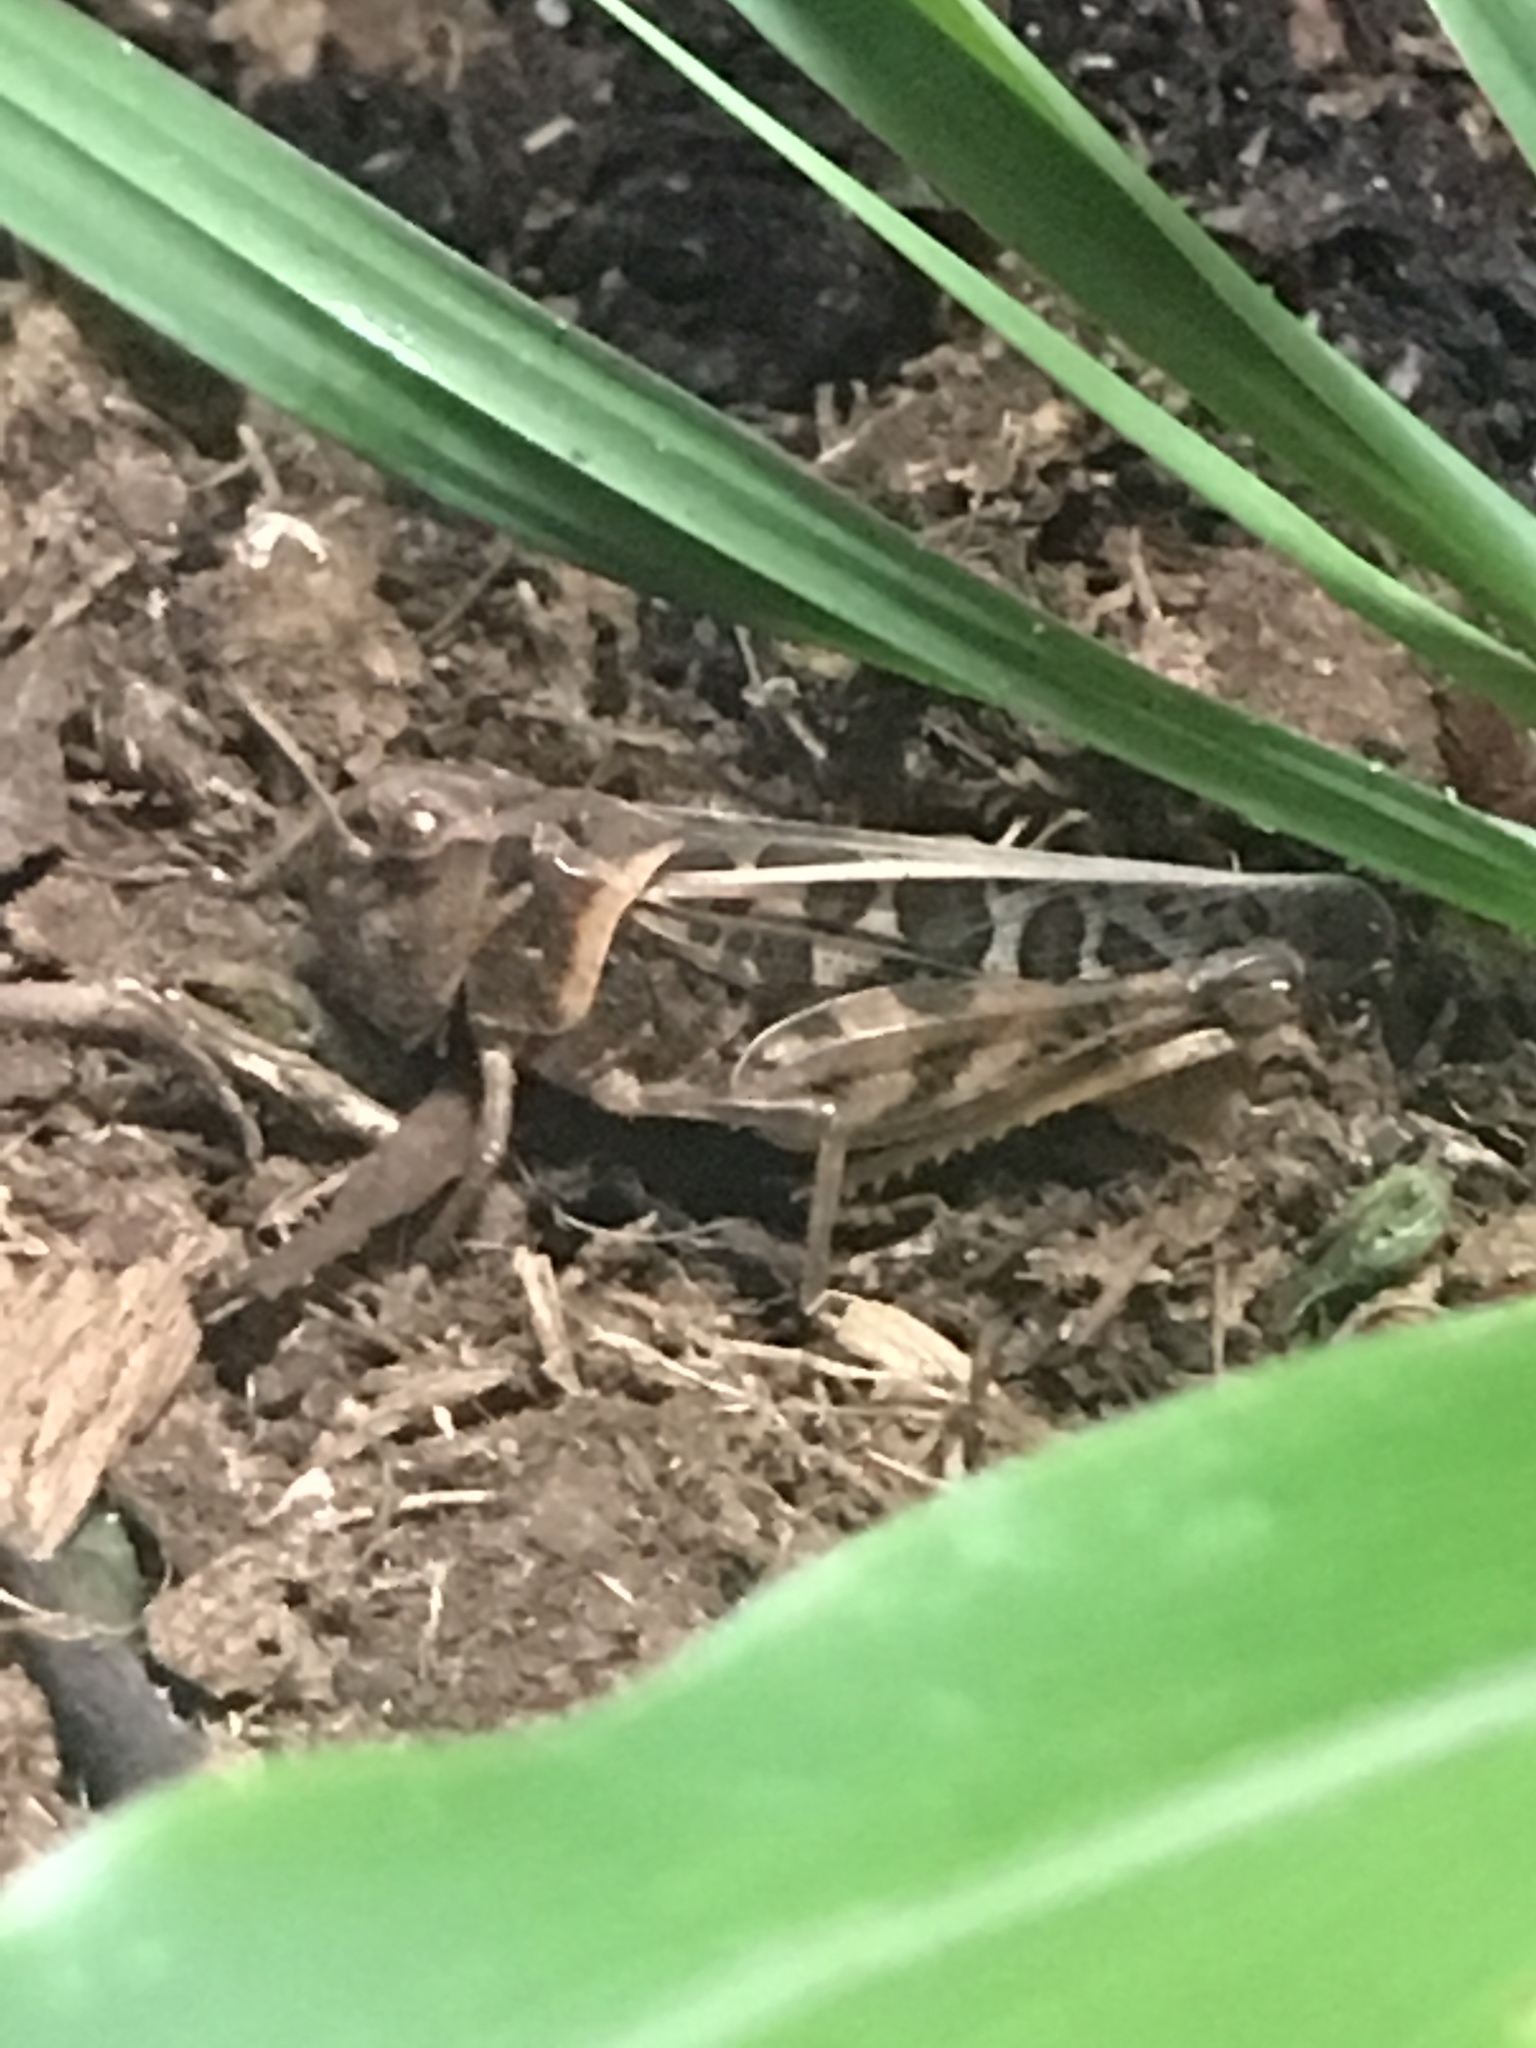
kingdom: Animalia
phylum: Arthropoda
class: Insecta
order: Orthoptera
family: Acrididae
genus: Hippiscus
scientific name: Hippiscus ocelote
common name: Wrinkled grasshopper
